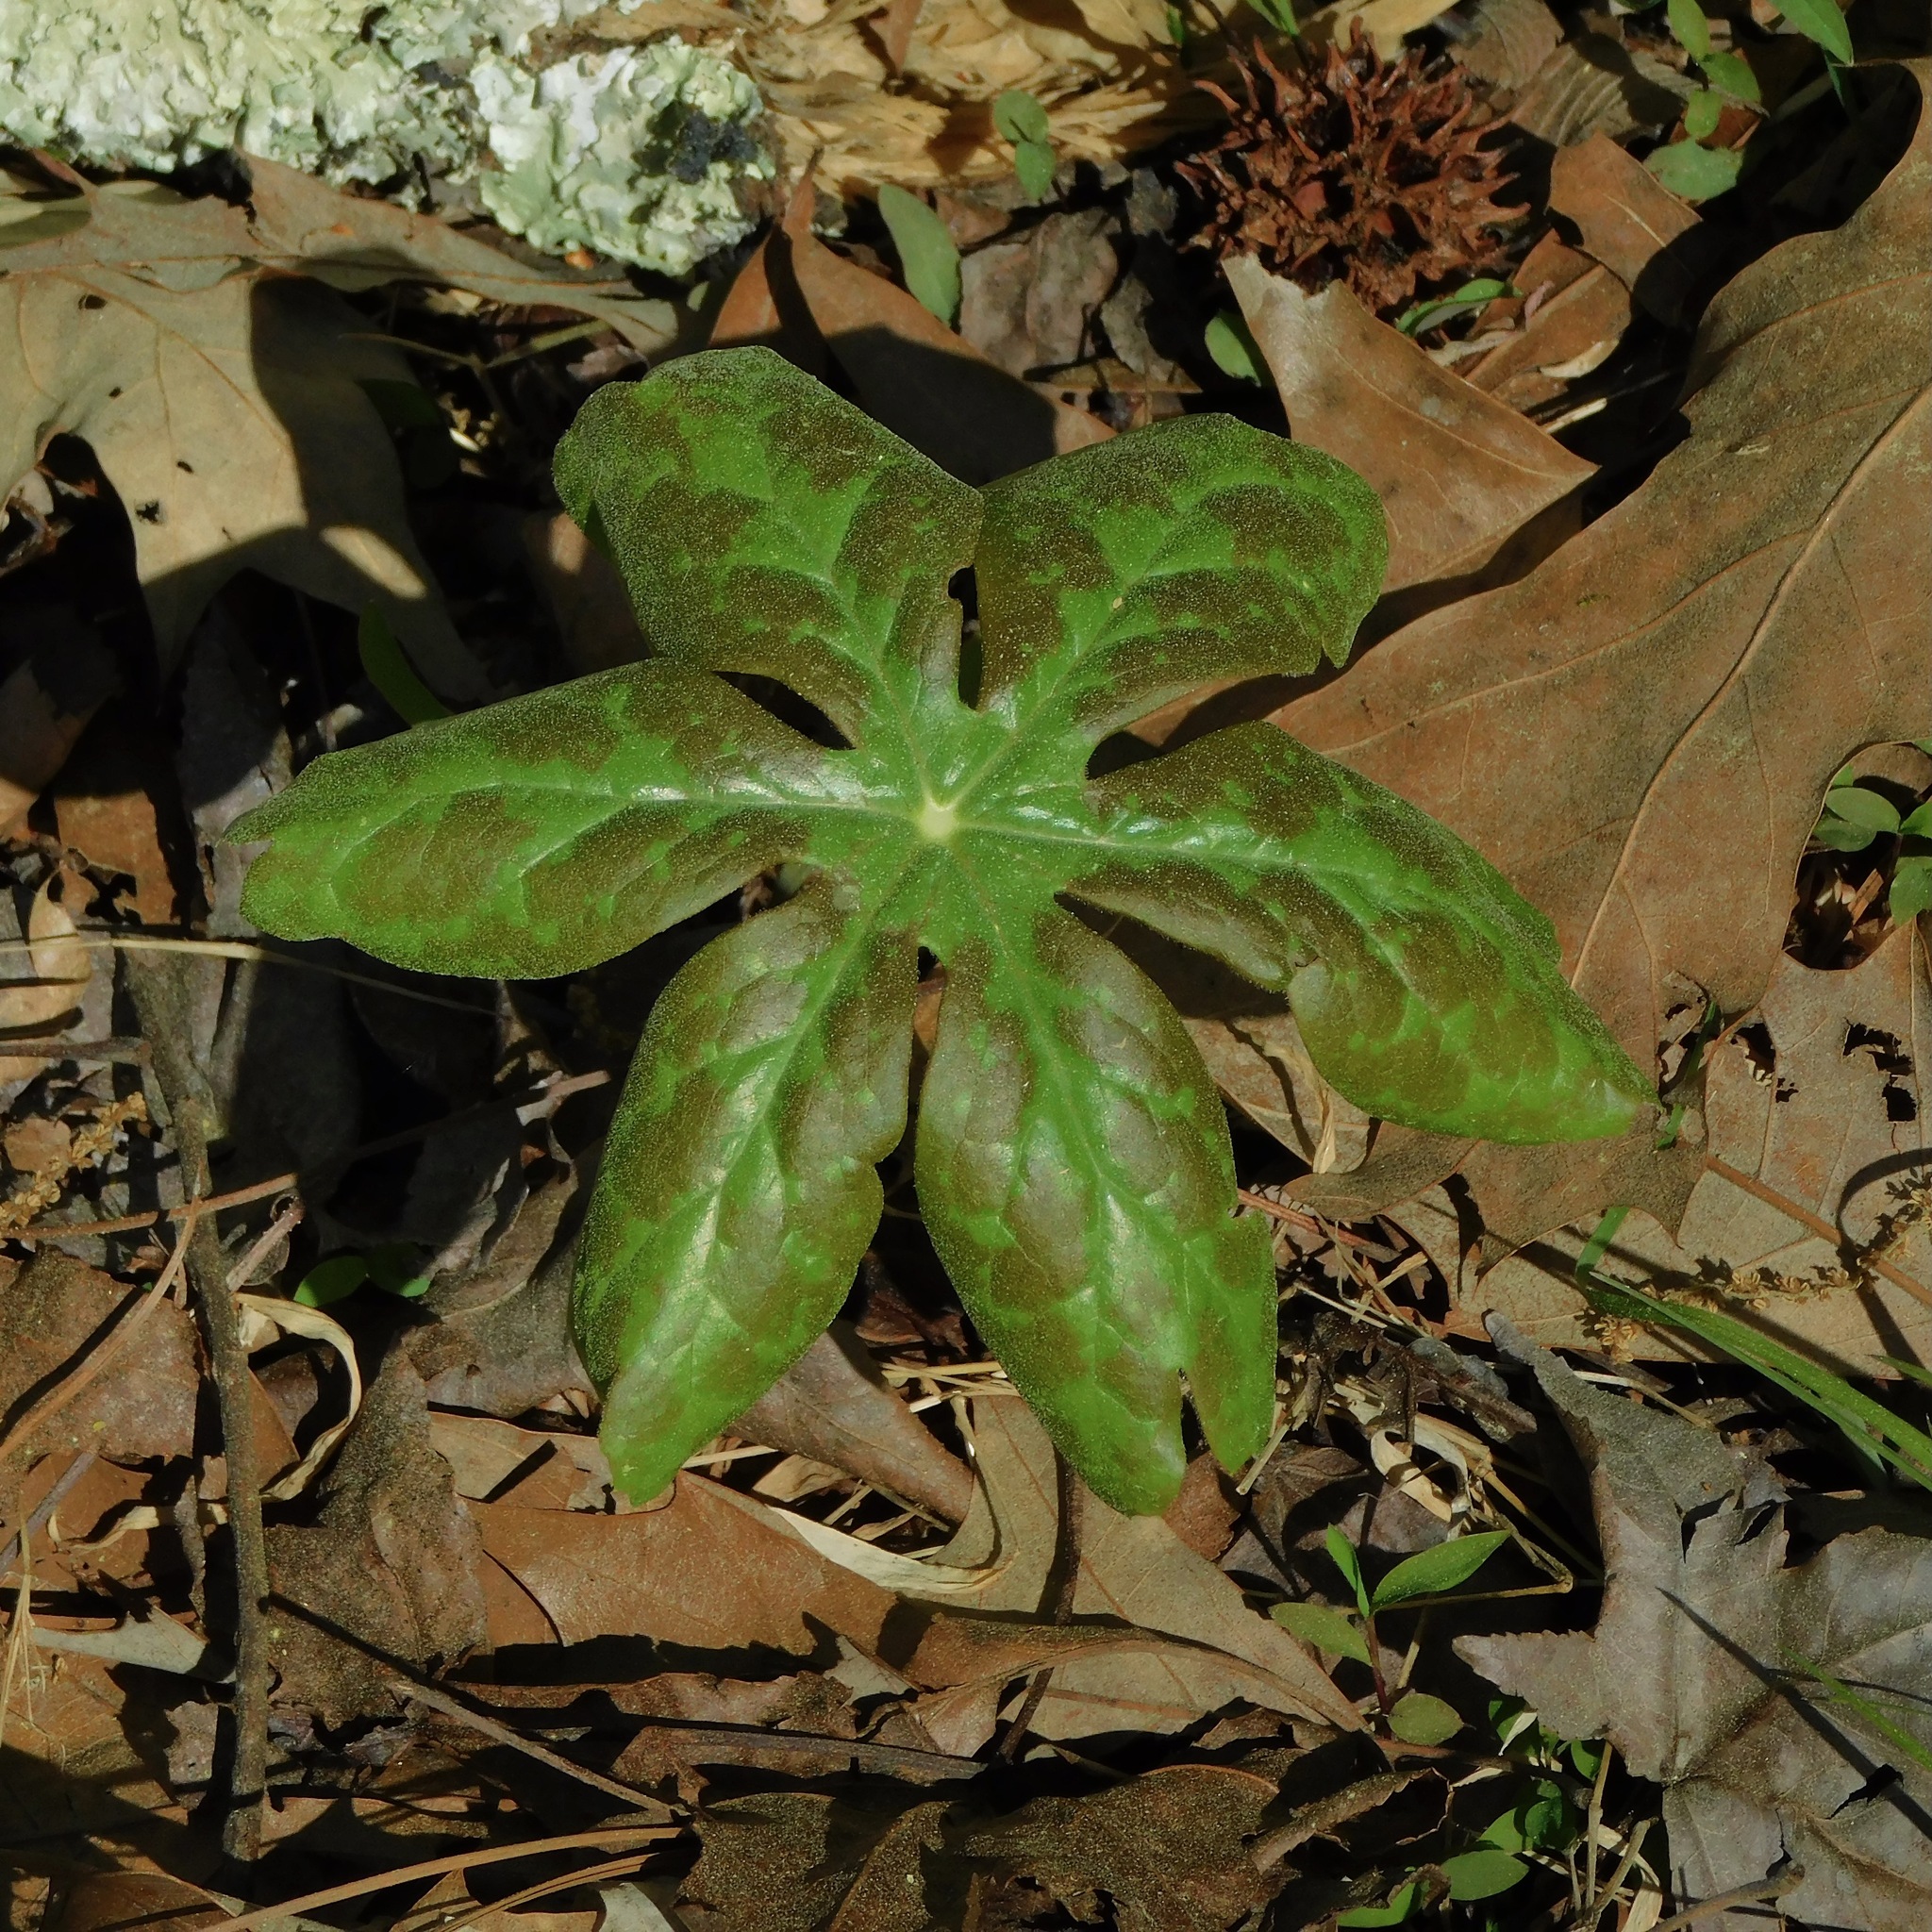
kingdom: Plantae
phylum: Tracheophyta
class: Magnoliopsida
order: Ranunculales
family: Berberidaceae
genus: Podophyllum
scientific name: Podophyllum peltatum
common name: Wild mandrake
